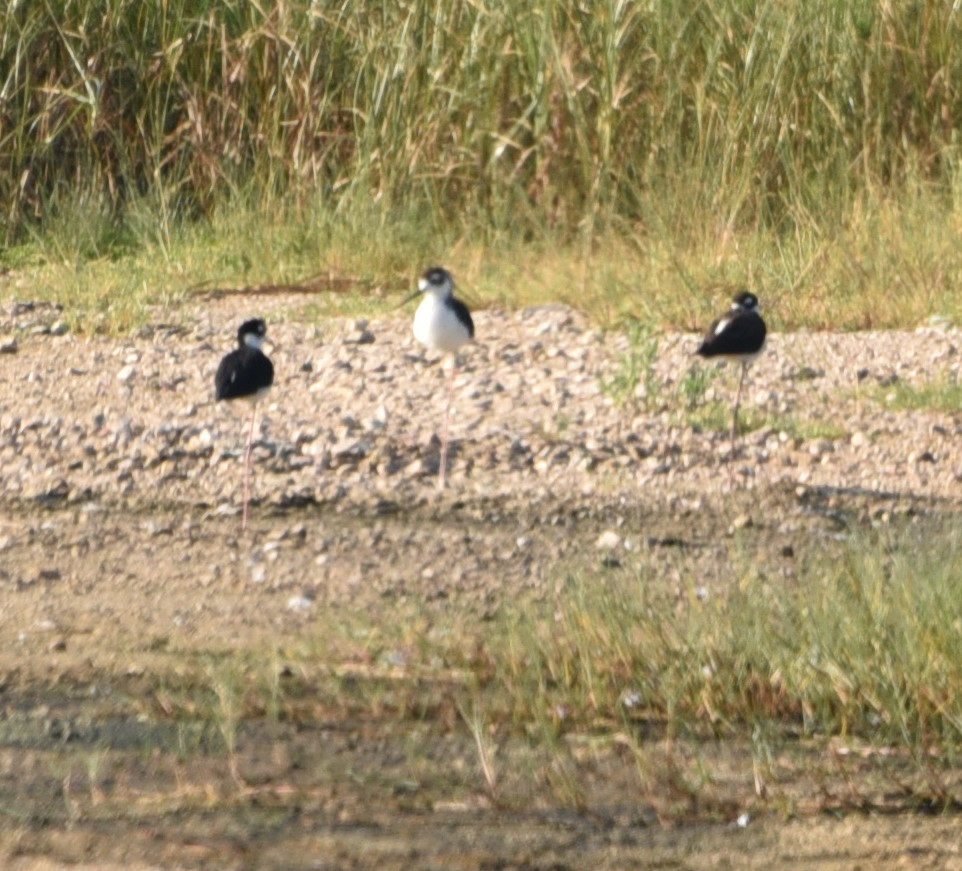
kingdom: Animalia
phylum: Chordata
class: Aves
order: Charadriiformes
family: Recurvirostridae
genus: Himantopus
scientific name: Himantopus mexicanus
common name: Black-necked stilt
